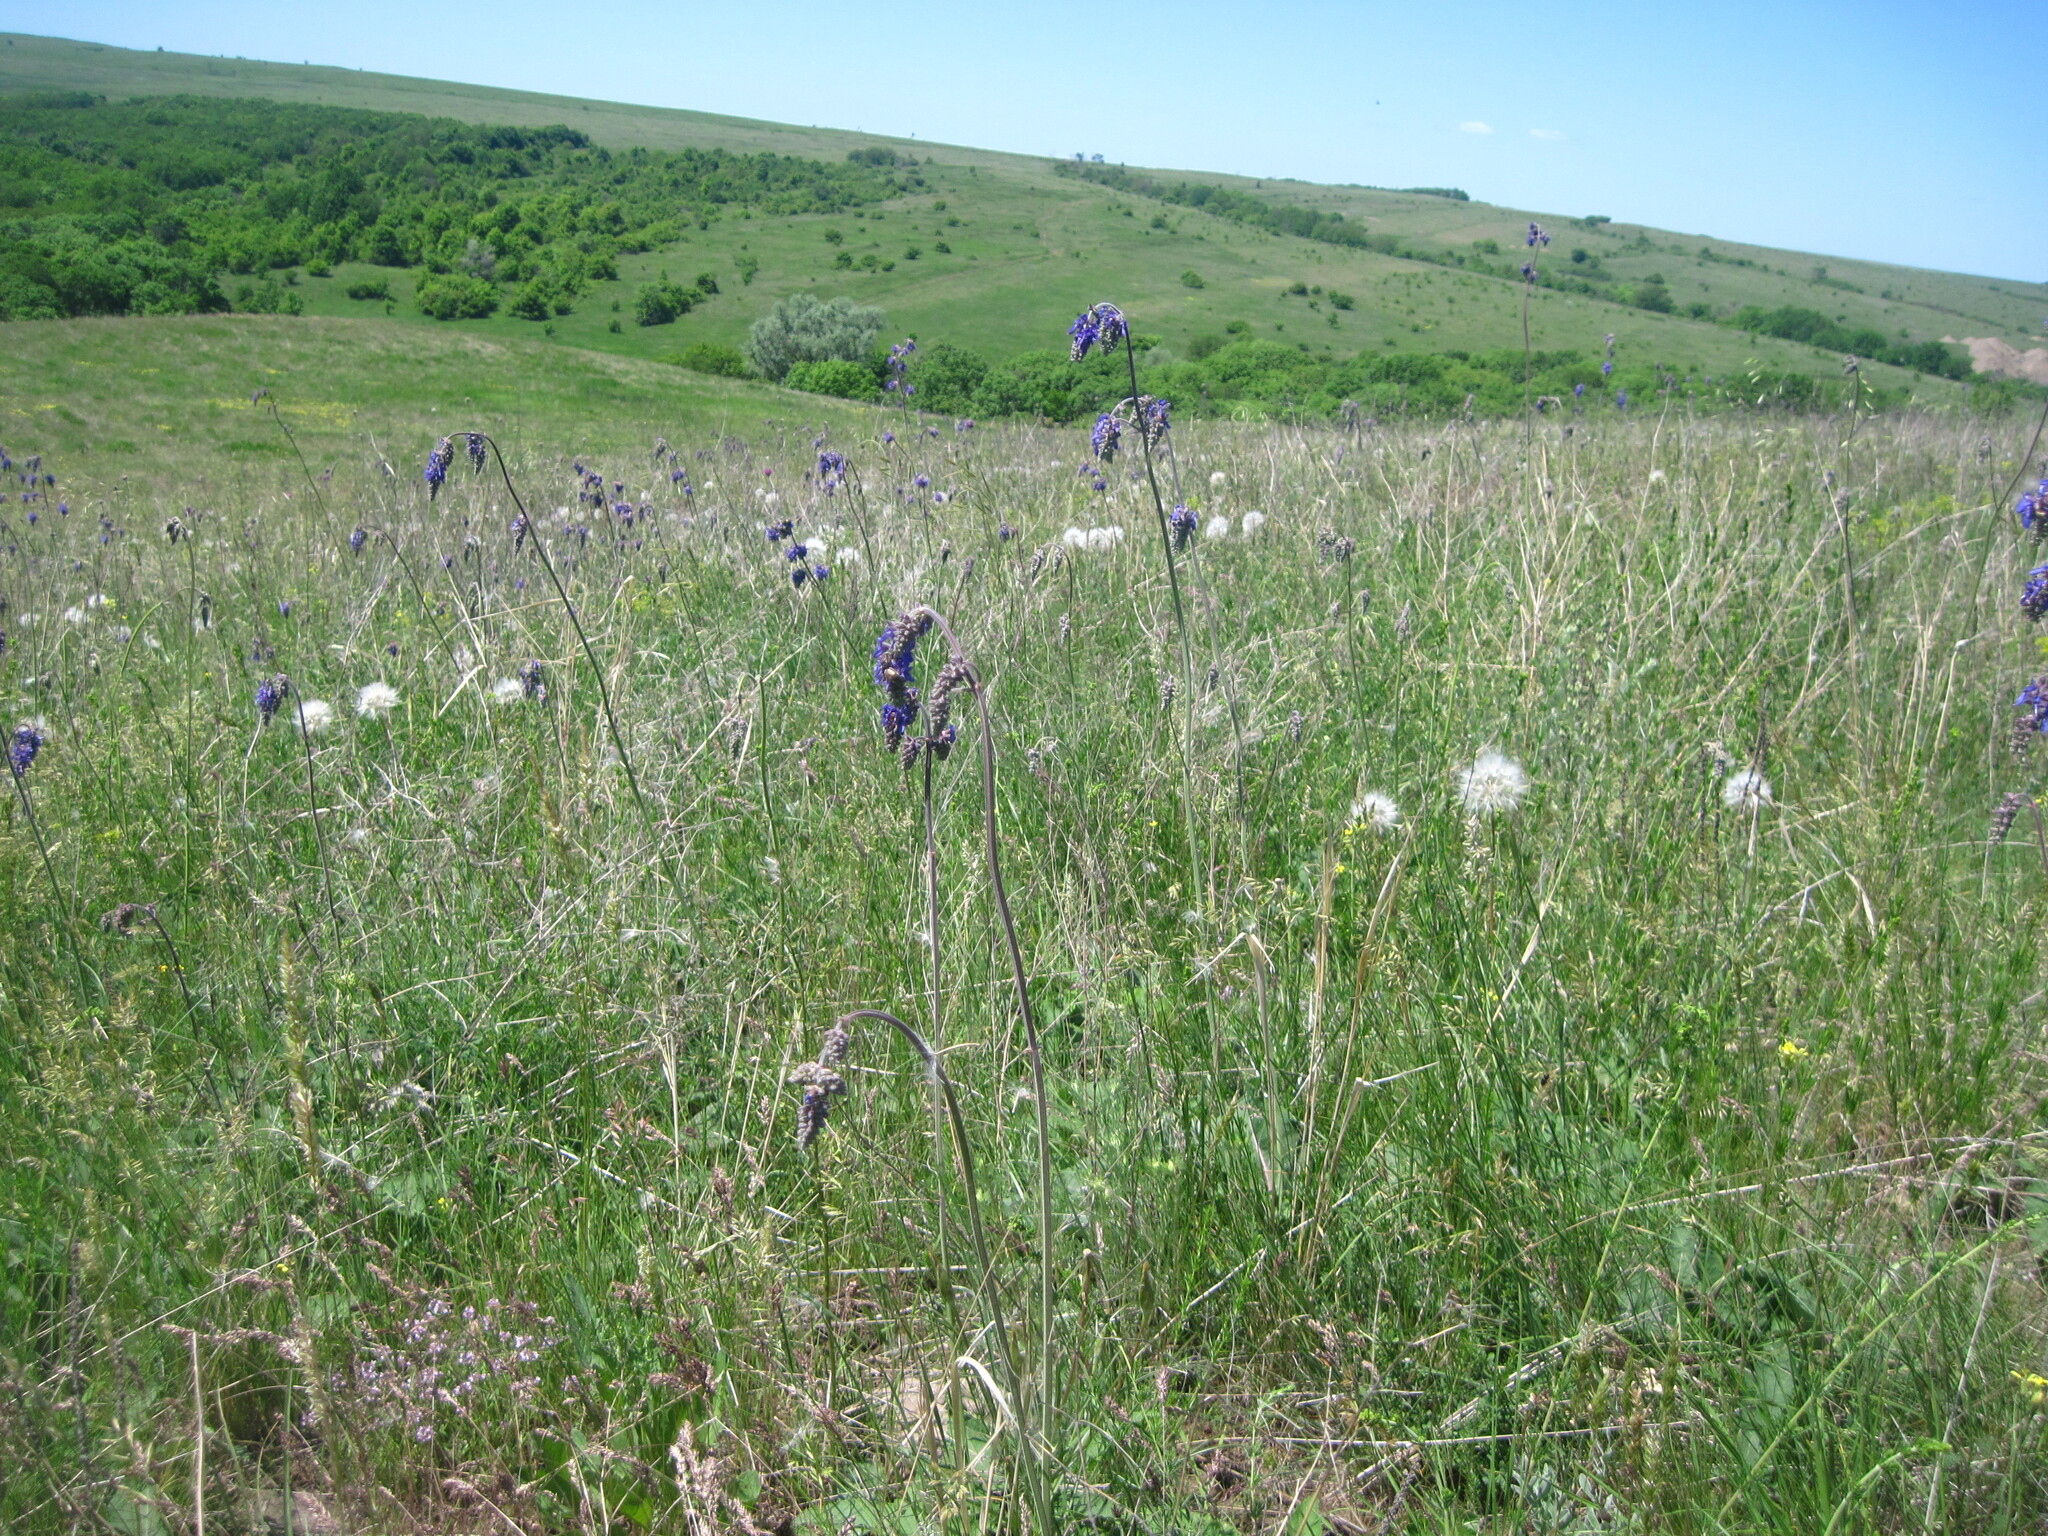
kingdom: Plantae
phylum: Tracheophyta
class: Magnoliopsida
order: Lamiales
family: Lamiaceae
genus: Salvia
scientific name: Salvia nutans
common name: Nodding sage
